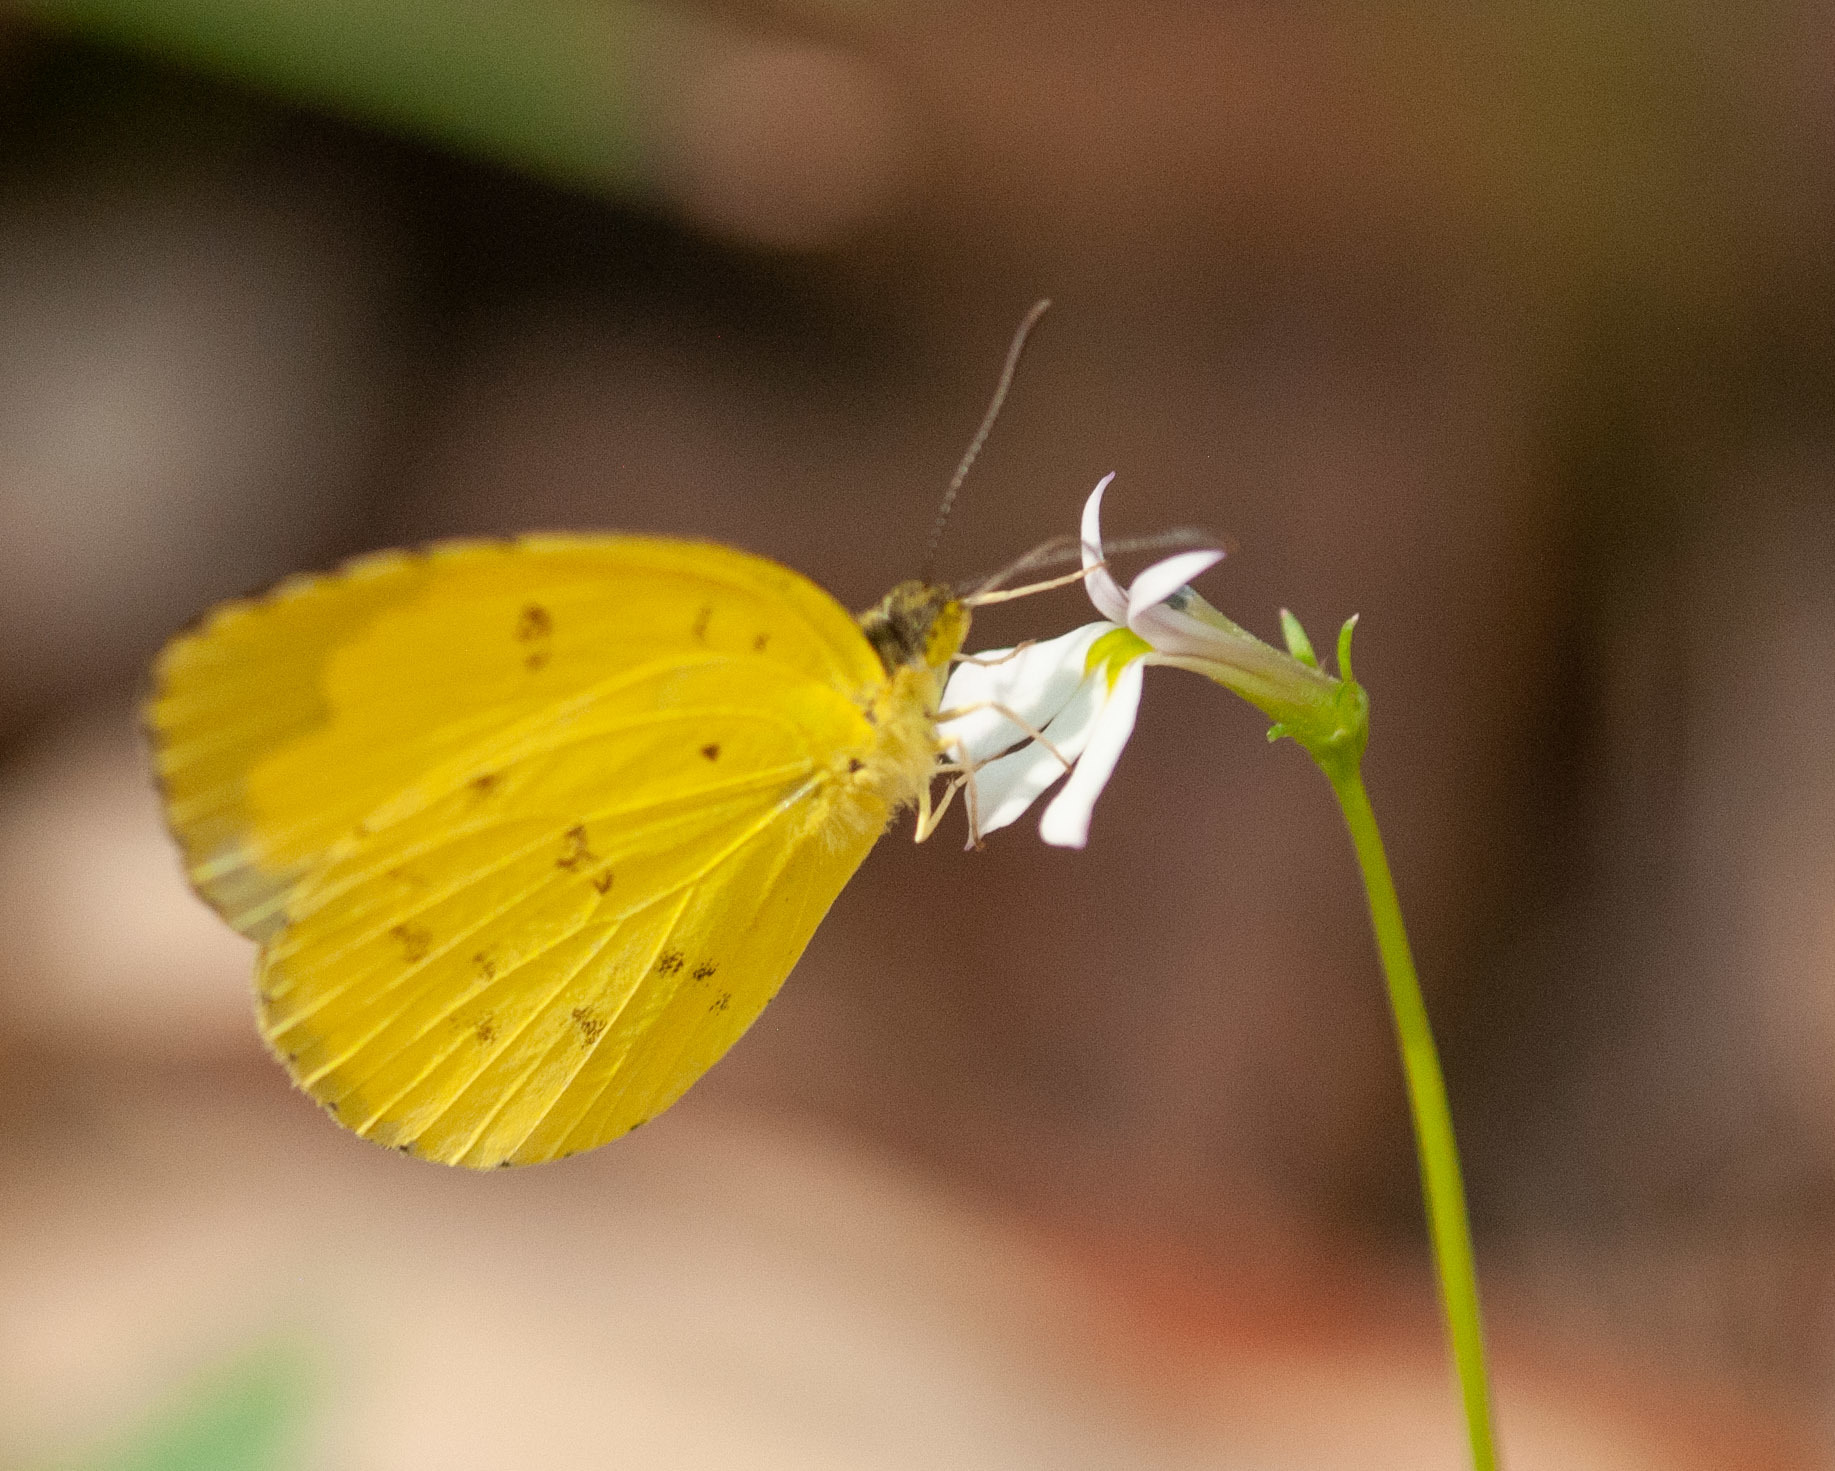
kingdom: Animalia
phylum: Arthropoda
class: Insecta
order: Lepidoptera
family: Pieridae
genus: Eurema
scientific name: Eurema hecabe
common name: Pale grass yellow
